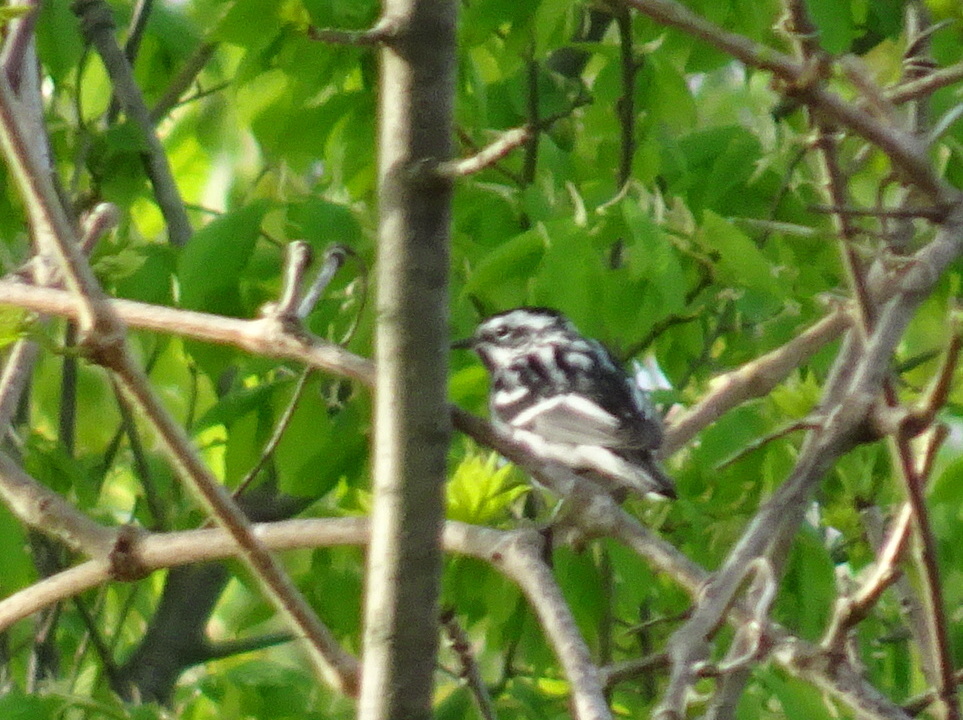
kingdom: Animalia
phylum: Chordata
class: Aves
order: Passeriformes
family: Parulidae
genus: Mniotilta
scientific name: Mniotilta varia
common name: Black-and-white warbler
